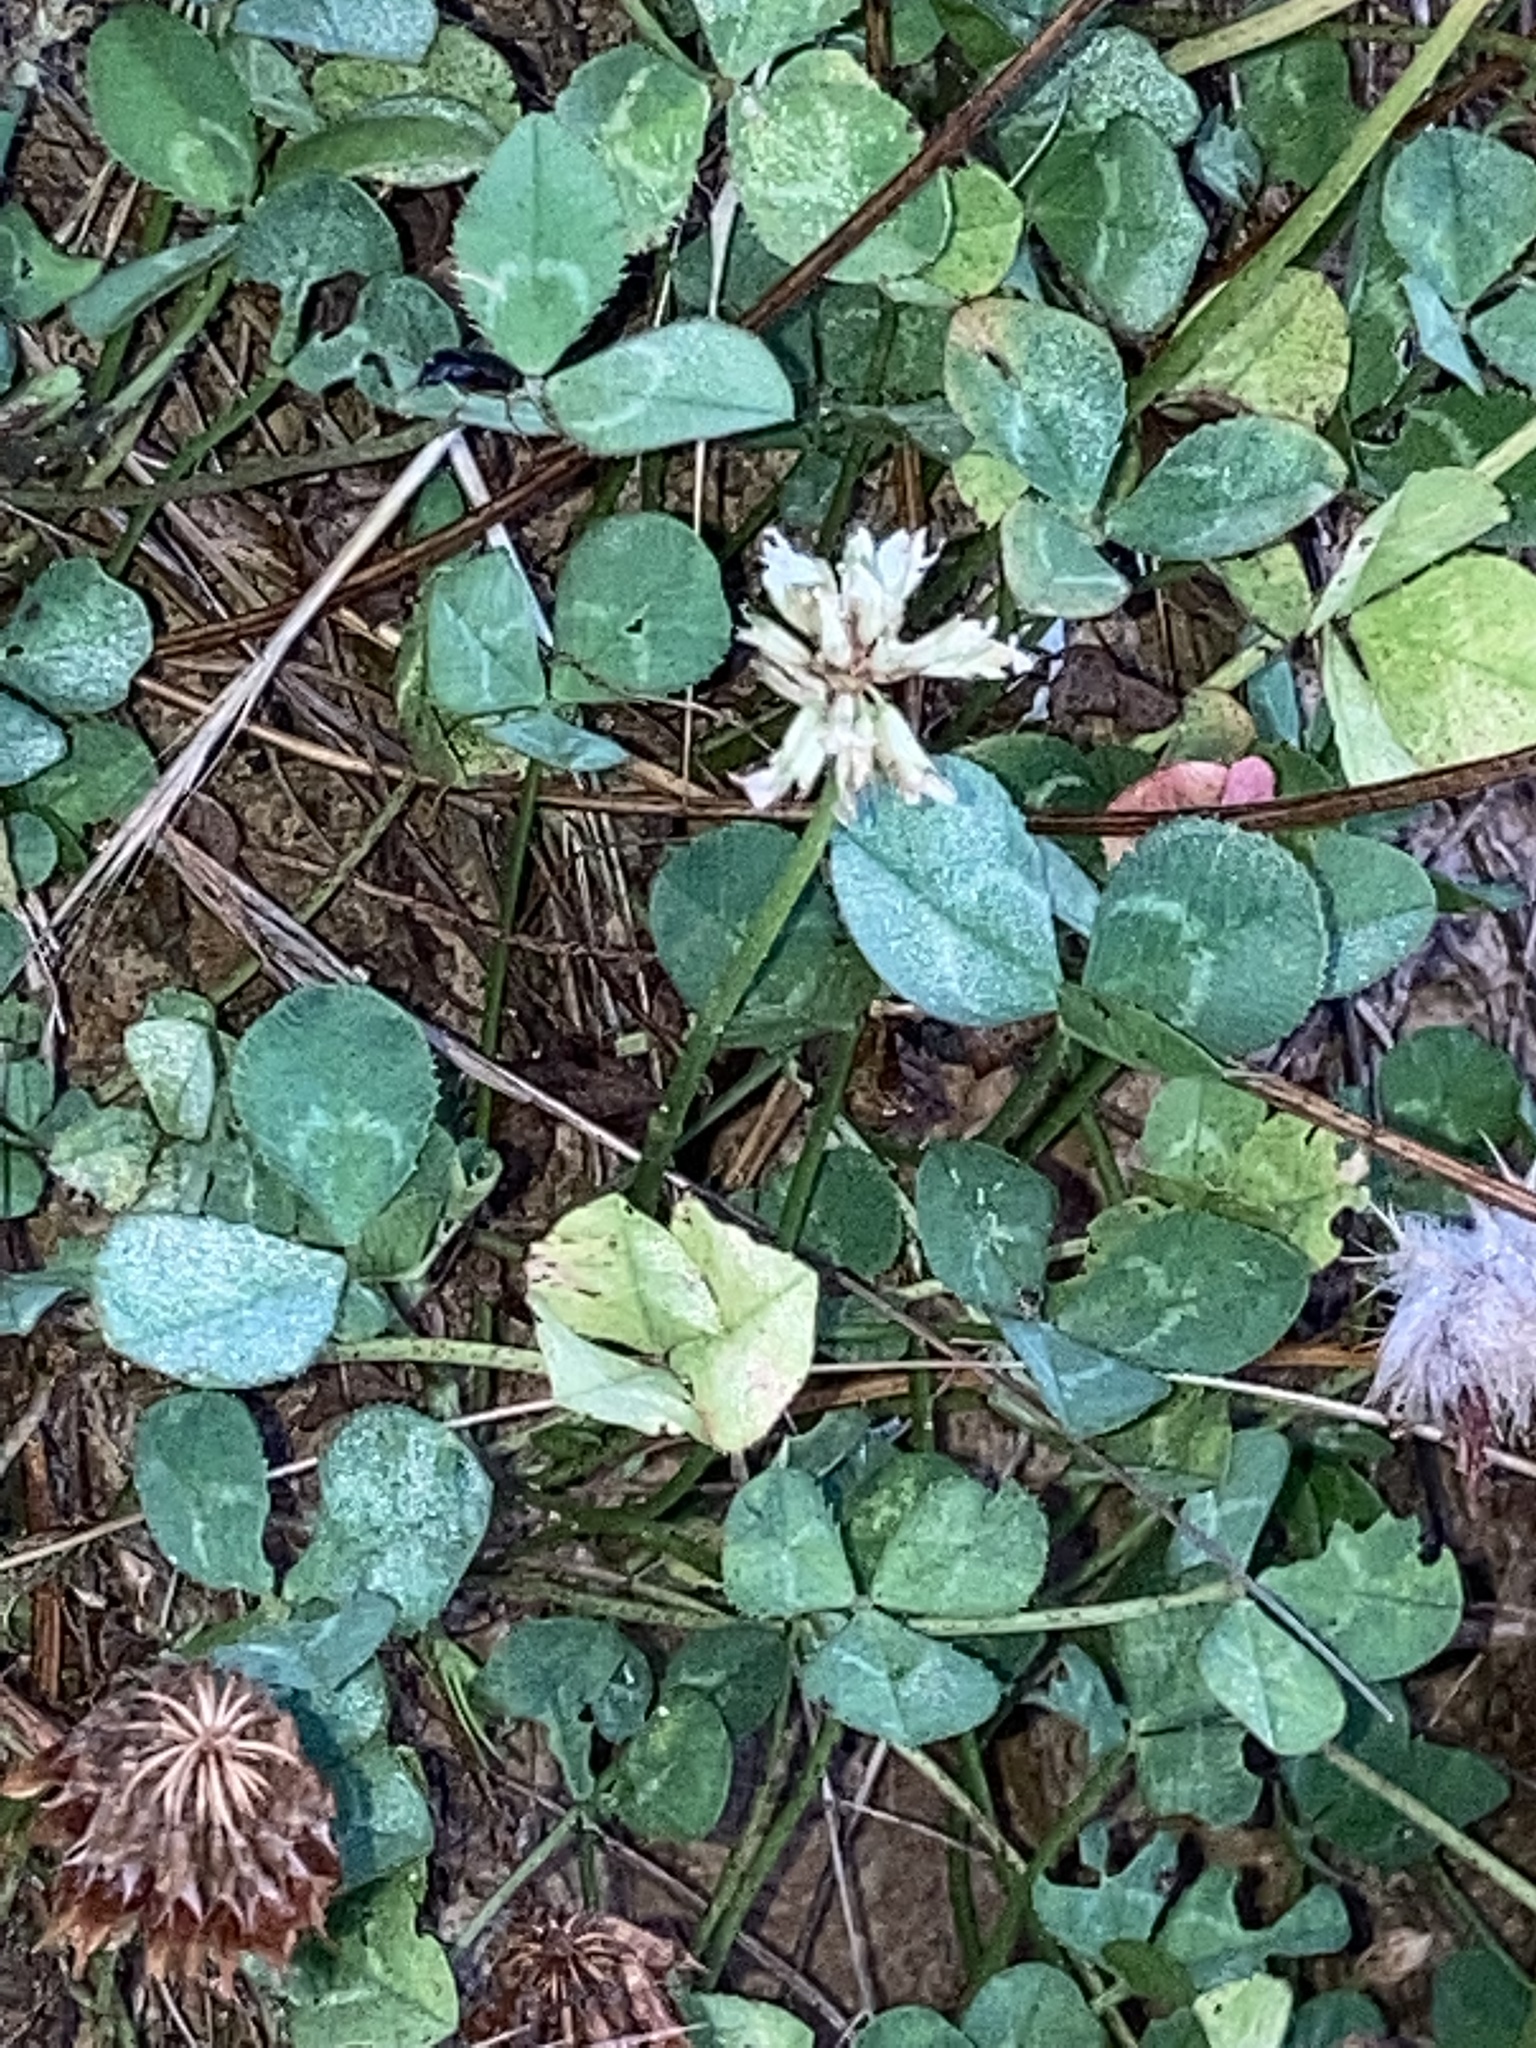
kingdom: Plantae
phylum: Tracheophyta
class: Magnoliopsida
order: Fabales
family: Fabaceae
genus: Trifolium
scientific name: Trifolium repens
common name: White clover
